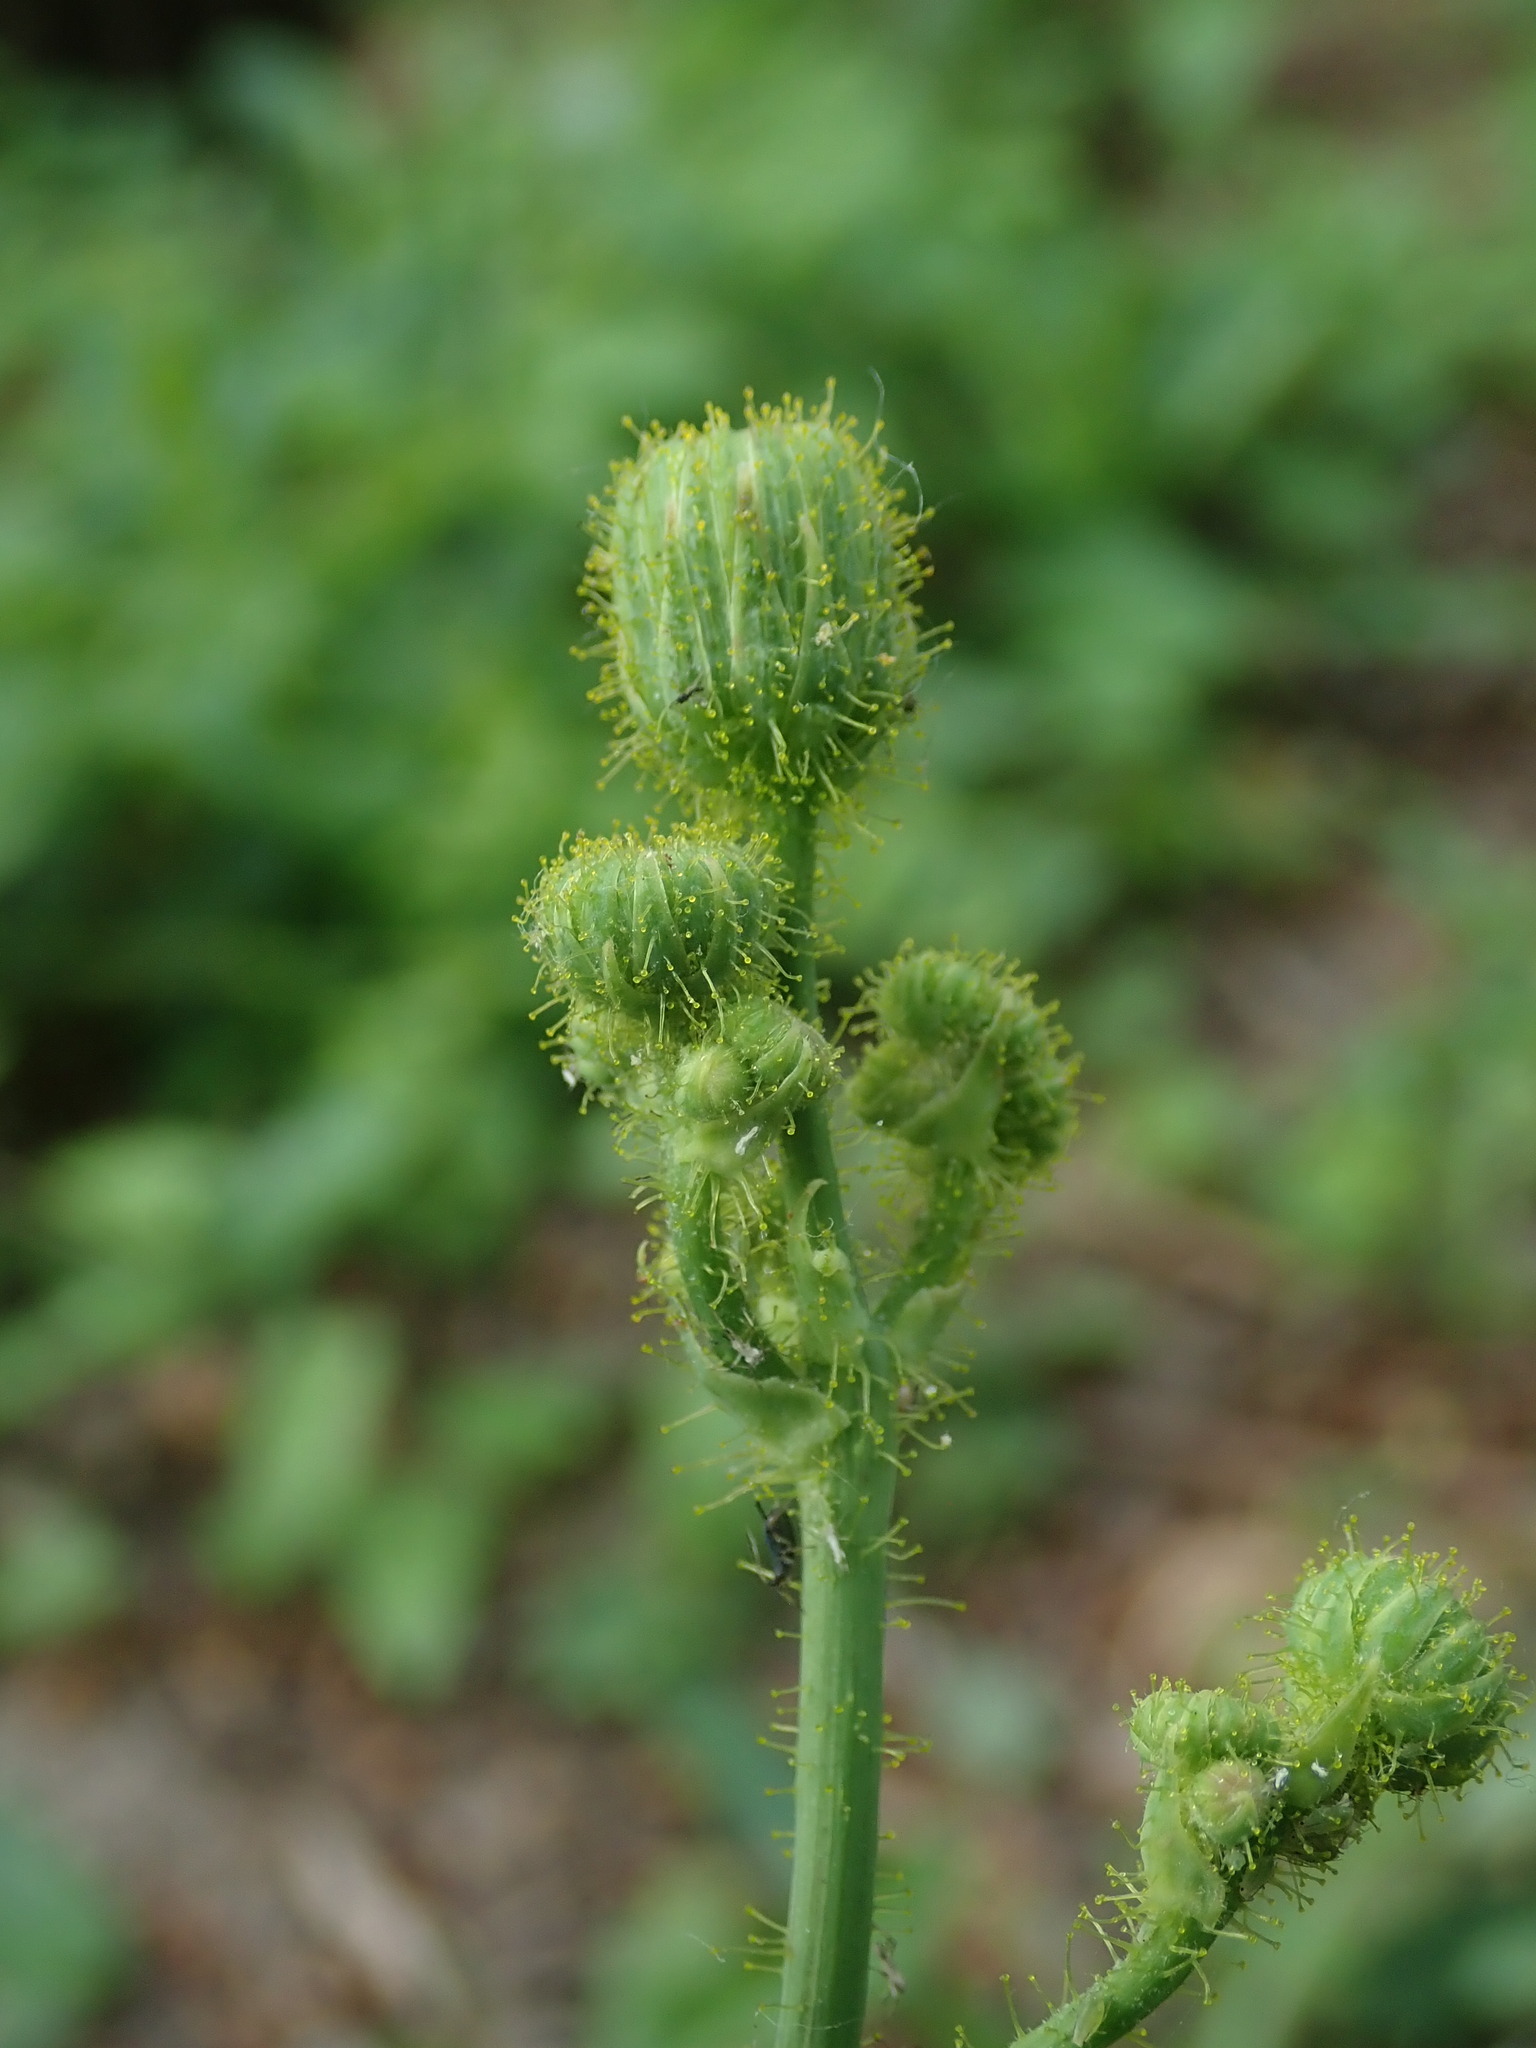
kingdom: Plantae
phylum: Tracheophyta
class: Magnoliopsida
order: Asterales
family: Asteraceae
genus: Sonchus
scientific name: Sonchus arvensis
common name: Perennial sow-thistle
